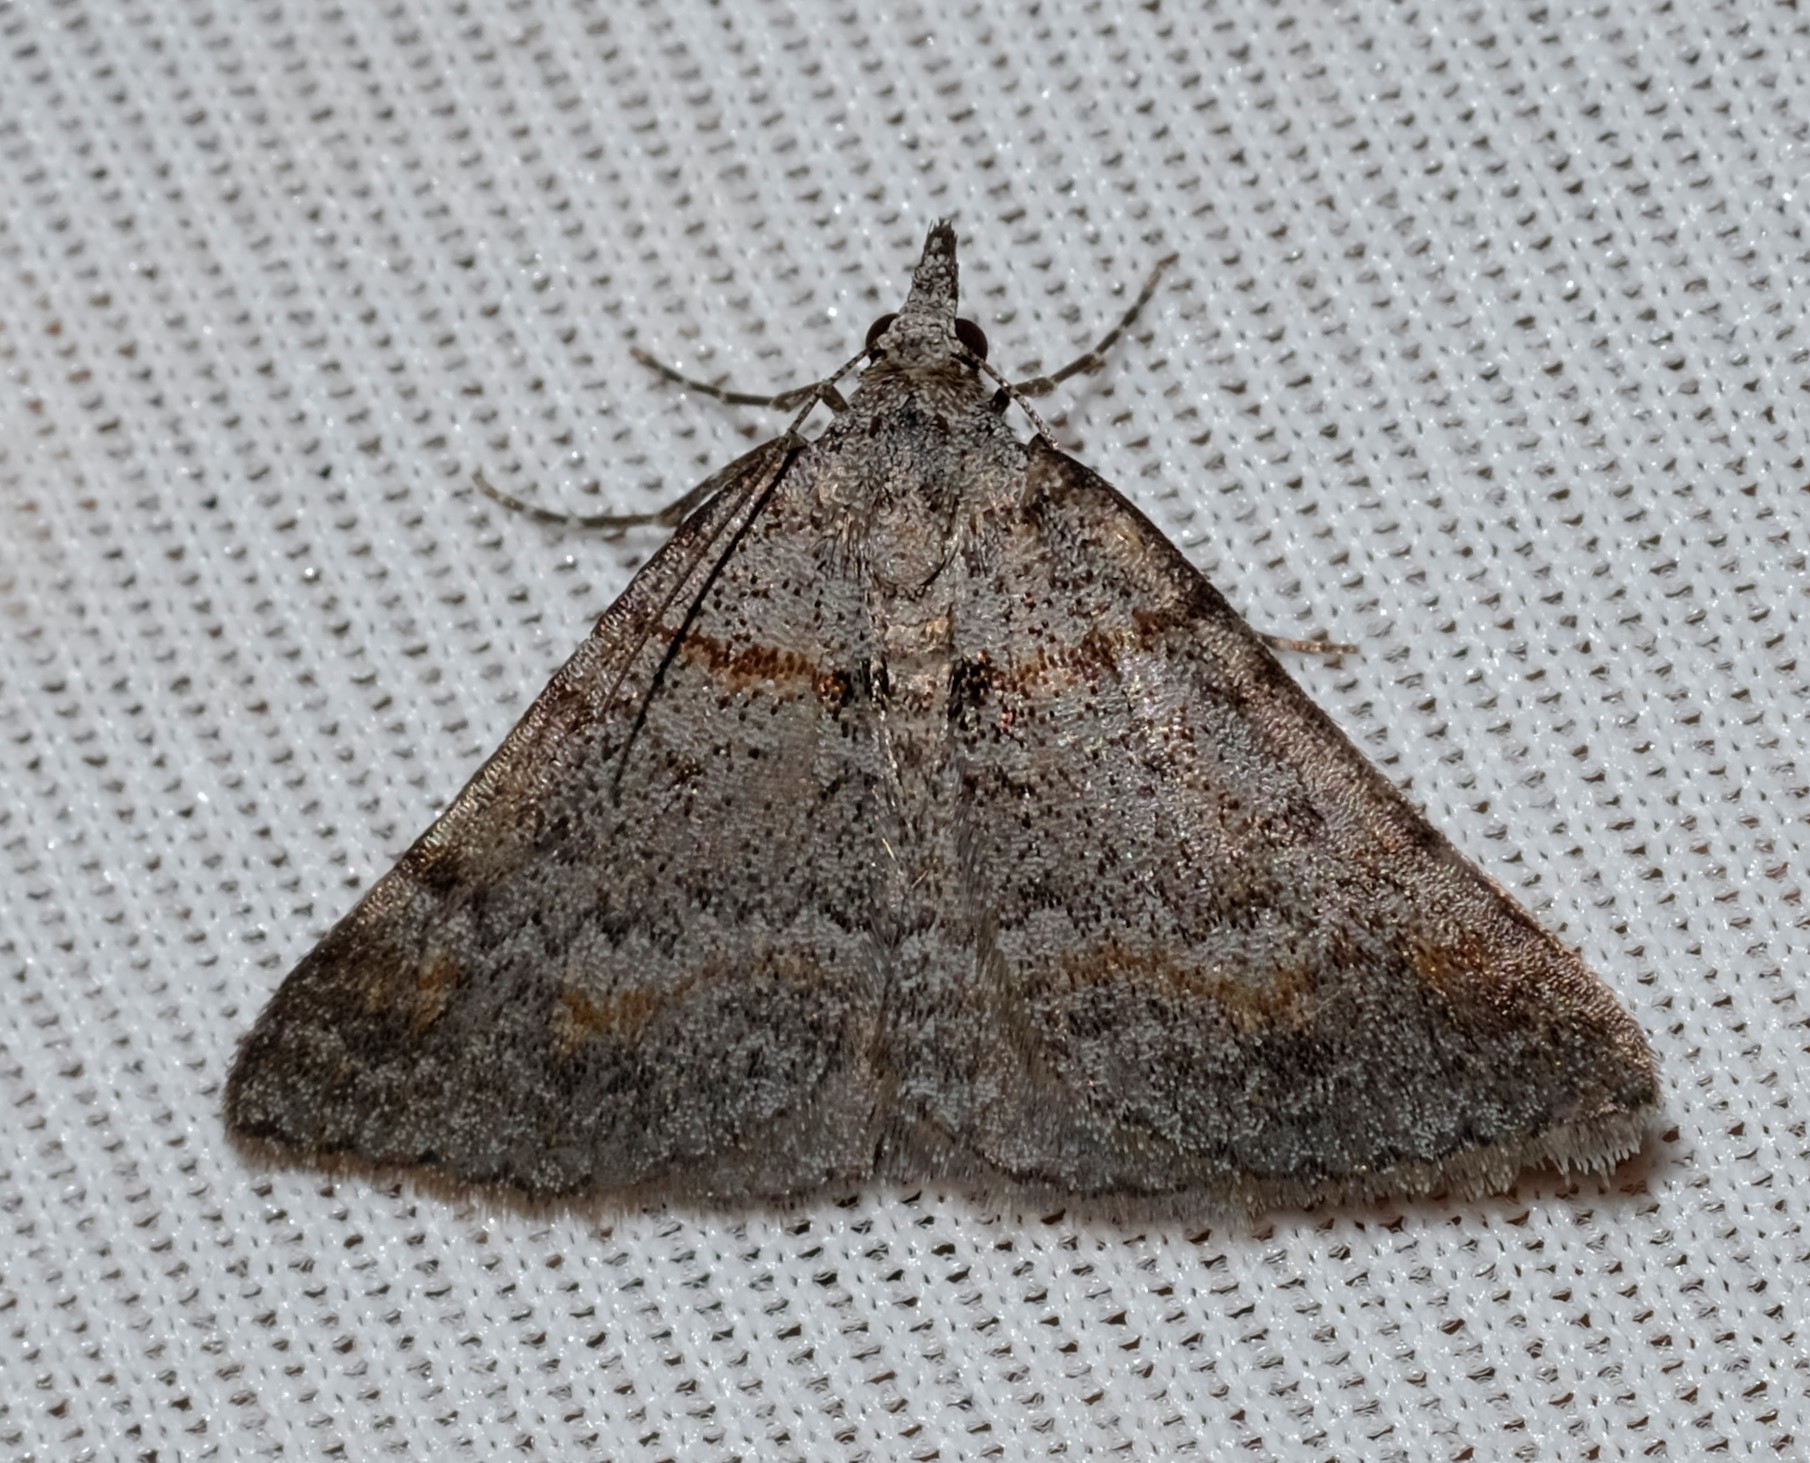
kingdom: Animalia
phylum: Arthropoda
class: Insecta
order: Lepidoptera
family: Geometridae
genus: Dichromodes
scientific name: Dichromodes obtusata
